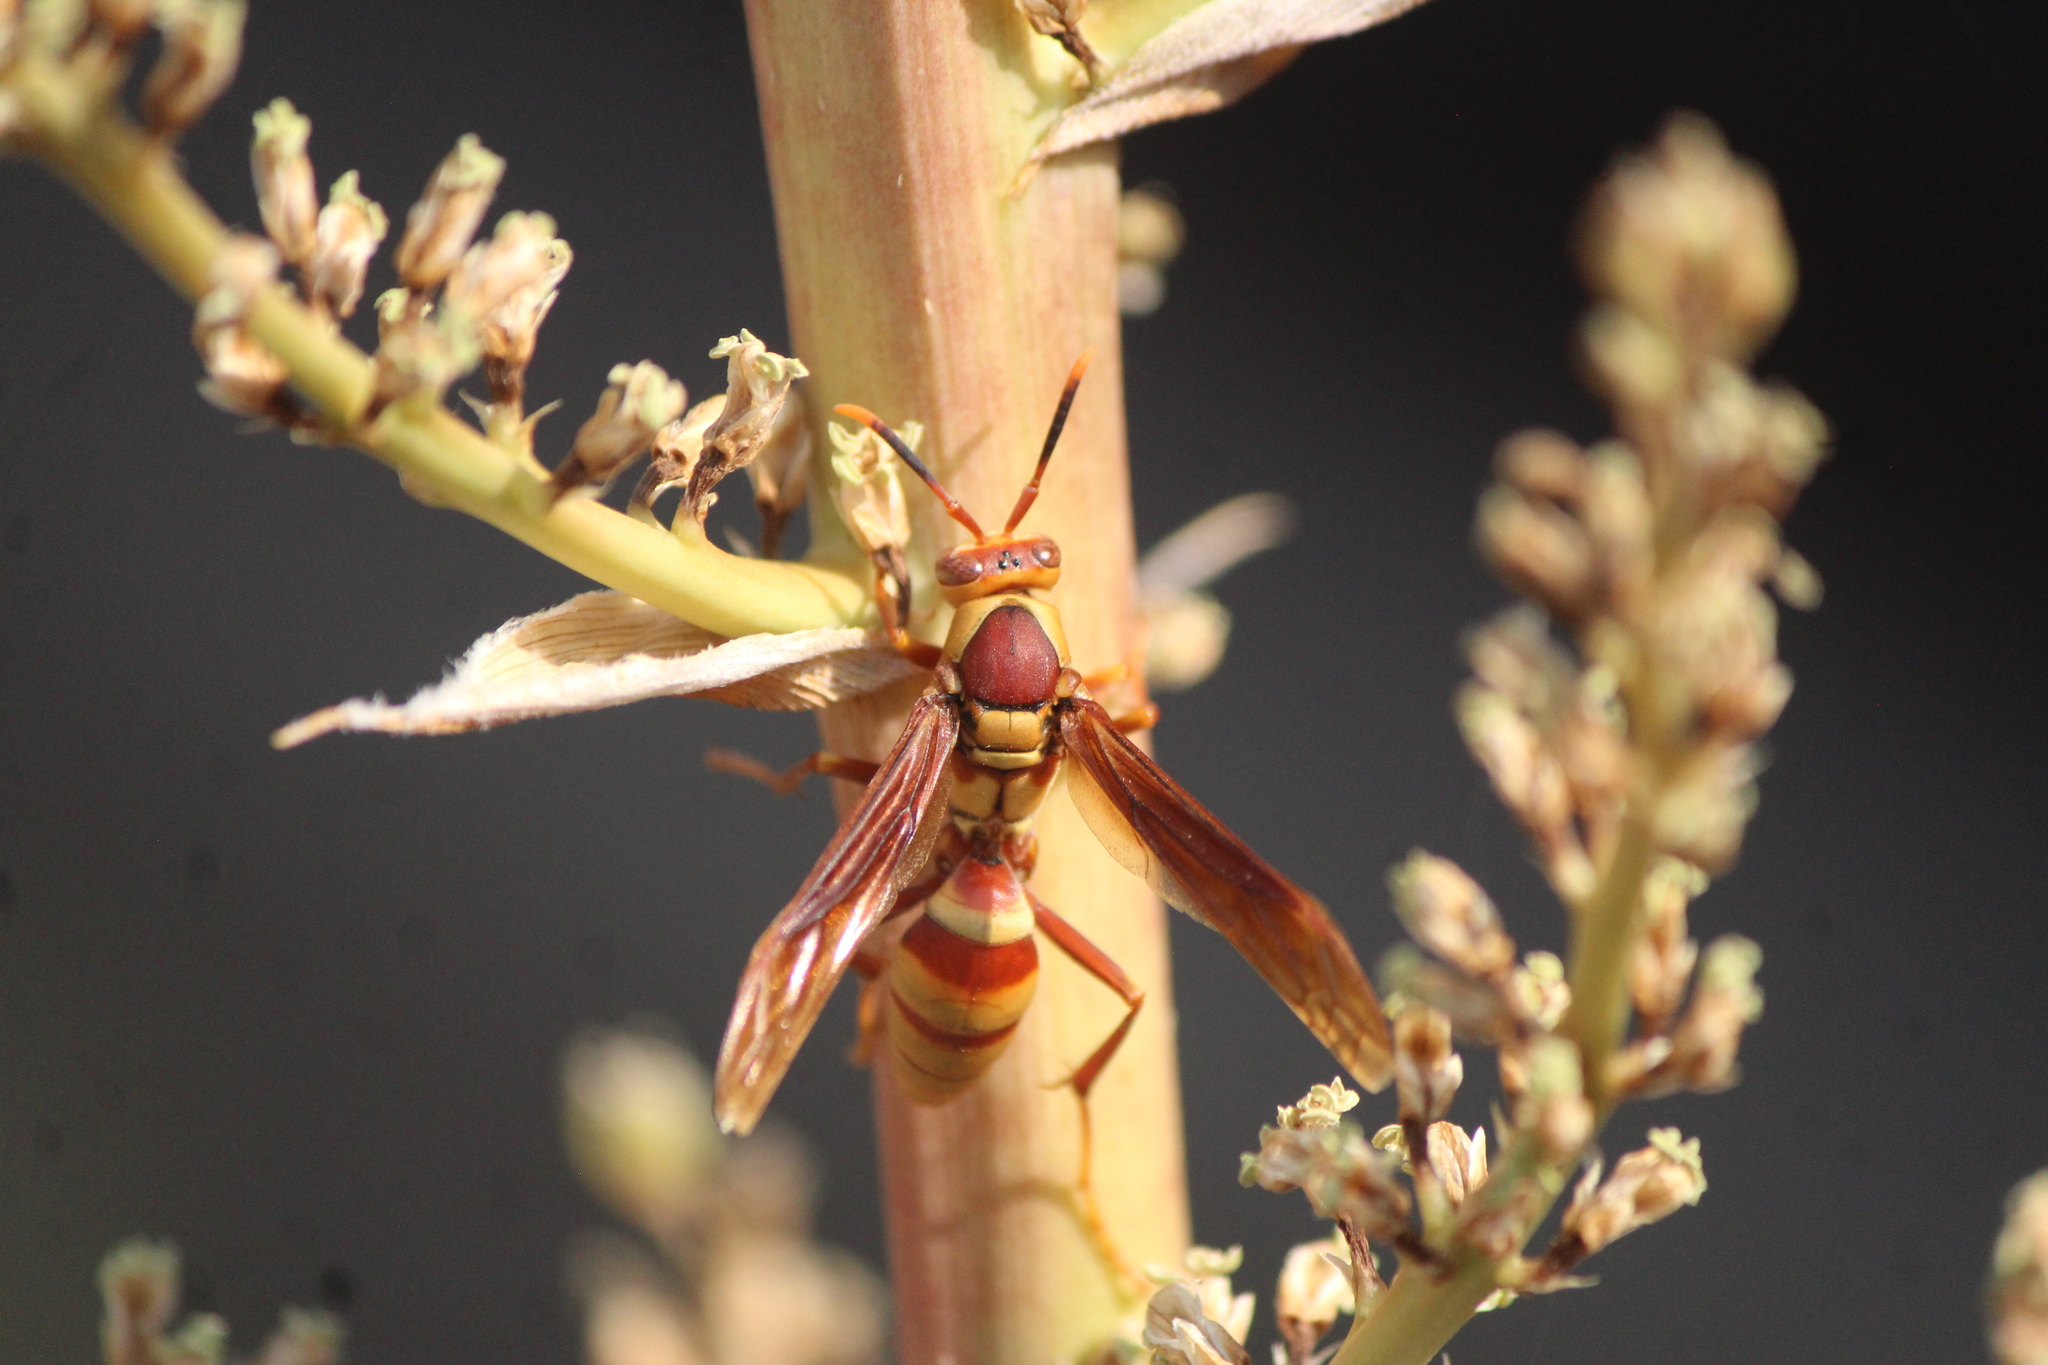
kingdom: Animalia
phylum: Arthropoda
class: Insecta
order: Hymenoptera
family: Eumenidae
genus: Polistes
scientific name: Polistes major
